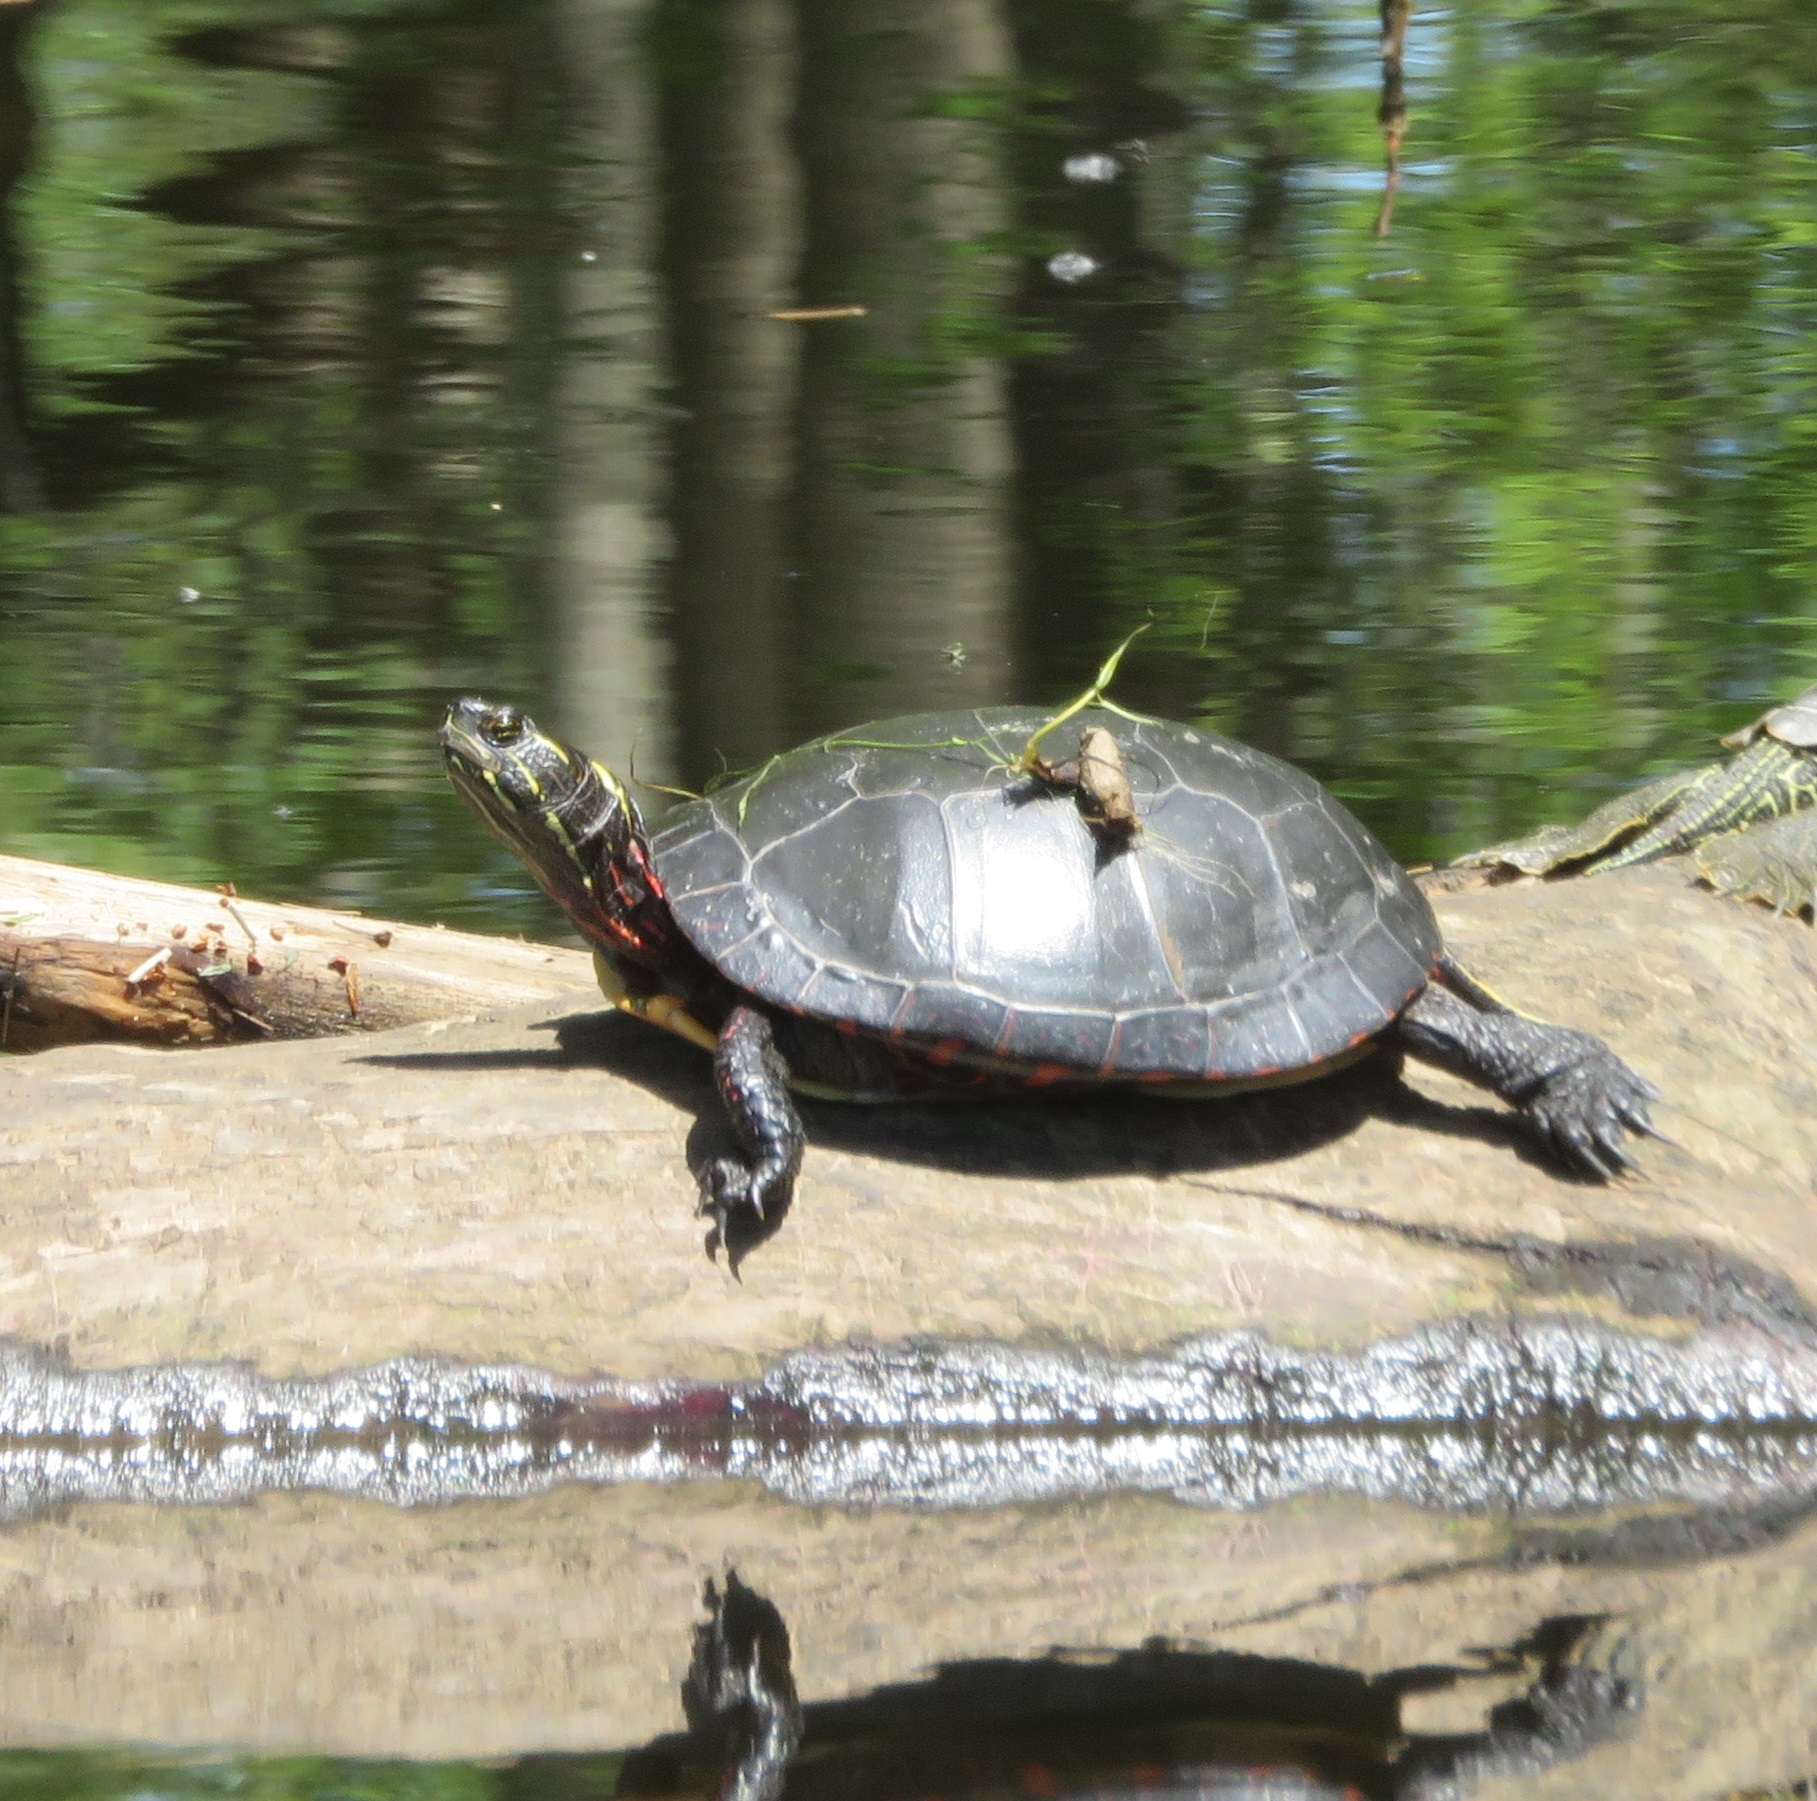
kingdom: Animalia
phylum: Chordata
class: Testudines
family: Emydidae
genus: Chrysemys
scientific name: Chrysemys picta
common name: Painted turtle
